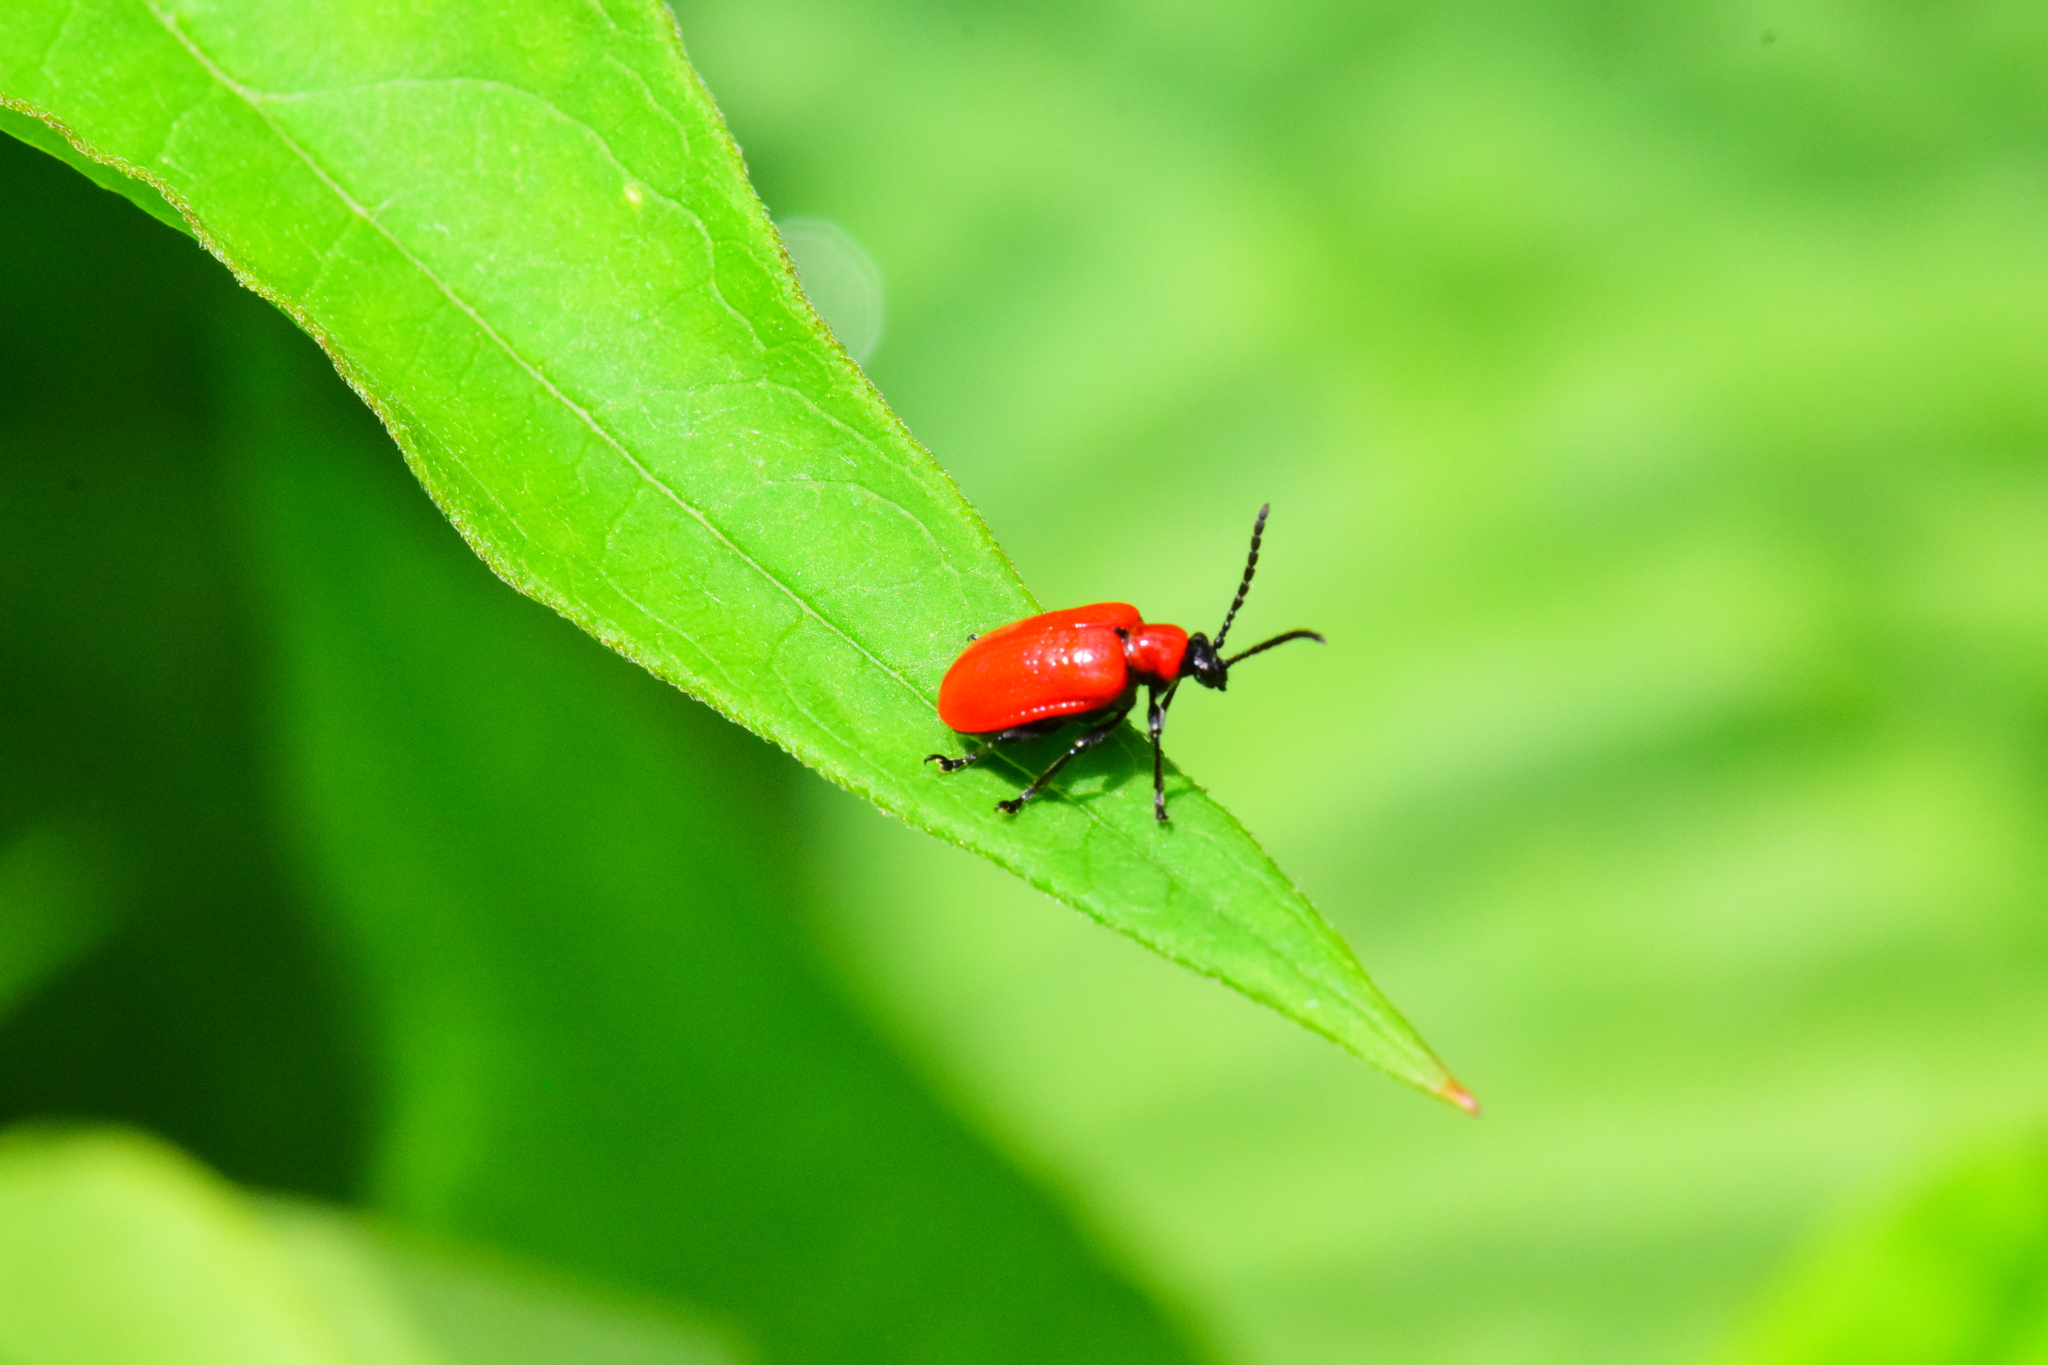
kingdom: Animalia
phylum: Arthropoda
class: Insecta
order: Coleoptera
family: Chrysomelidae
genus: Lilioceris
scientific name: Lilioceris lilii
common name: Lily beetle
